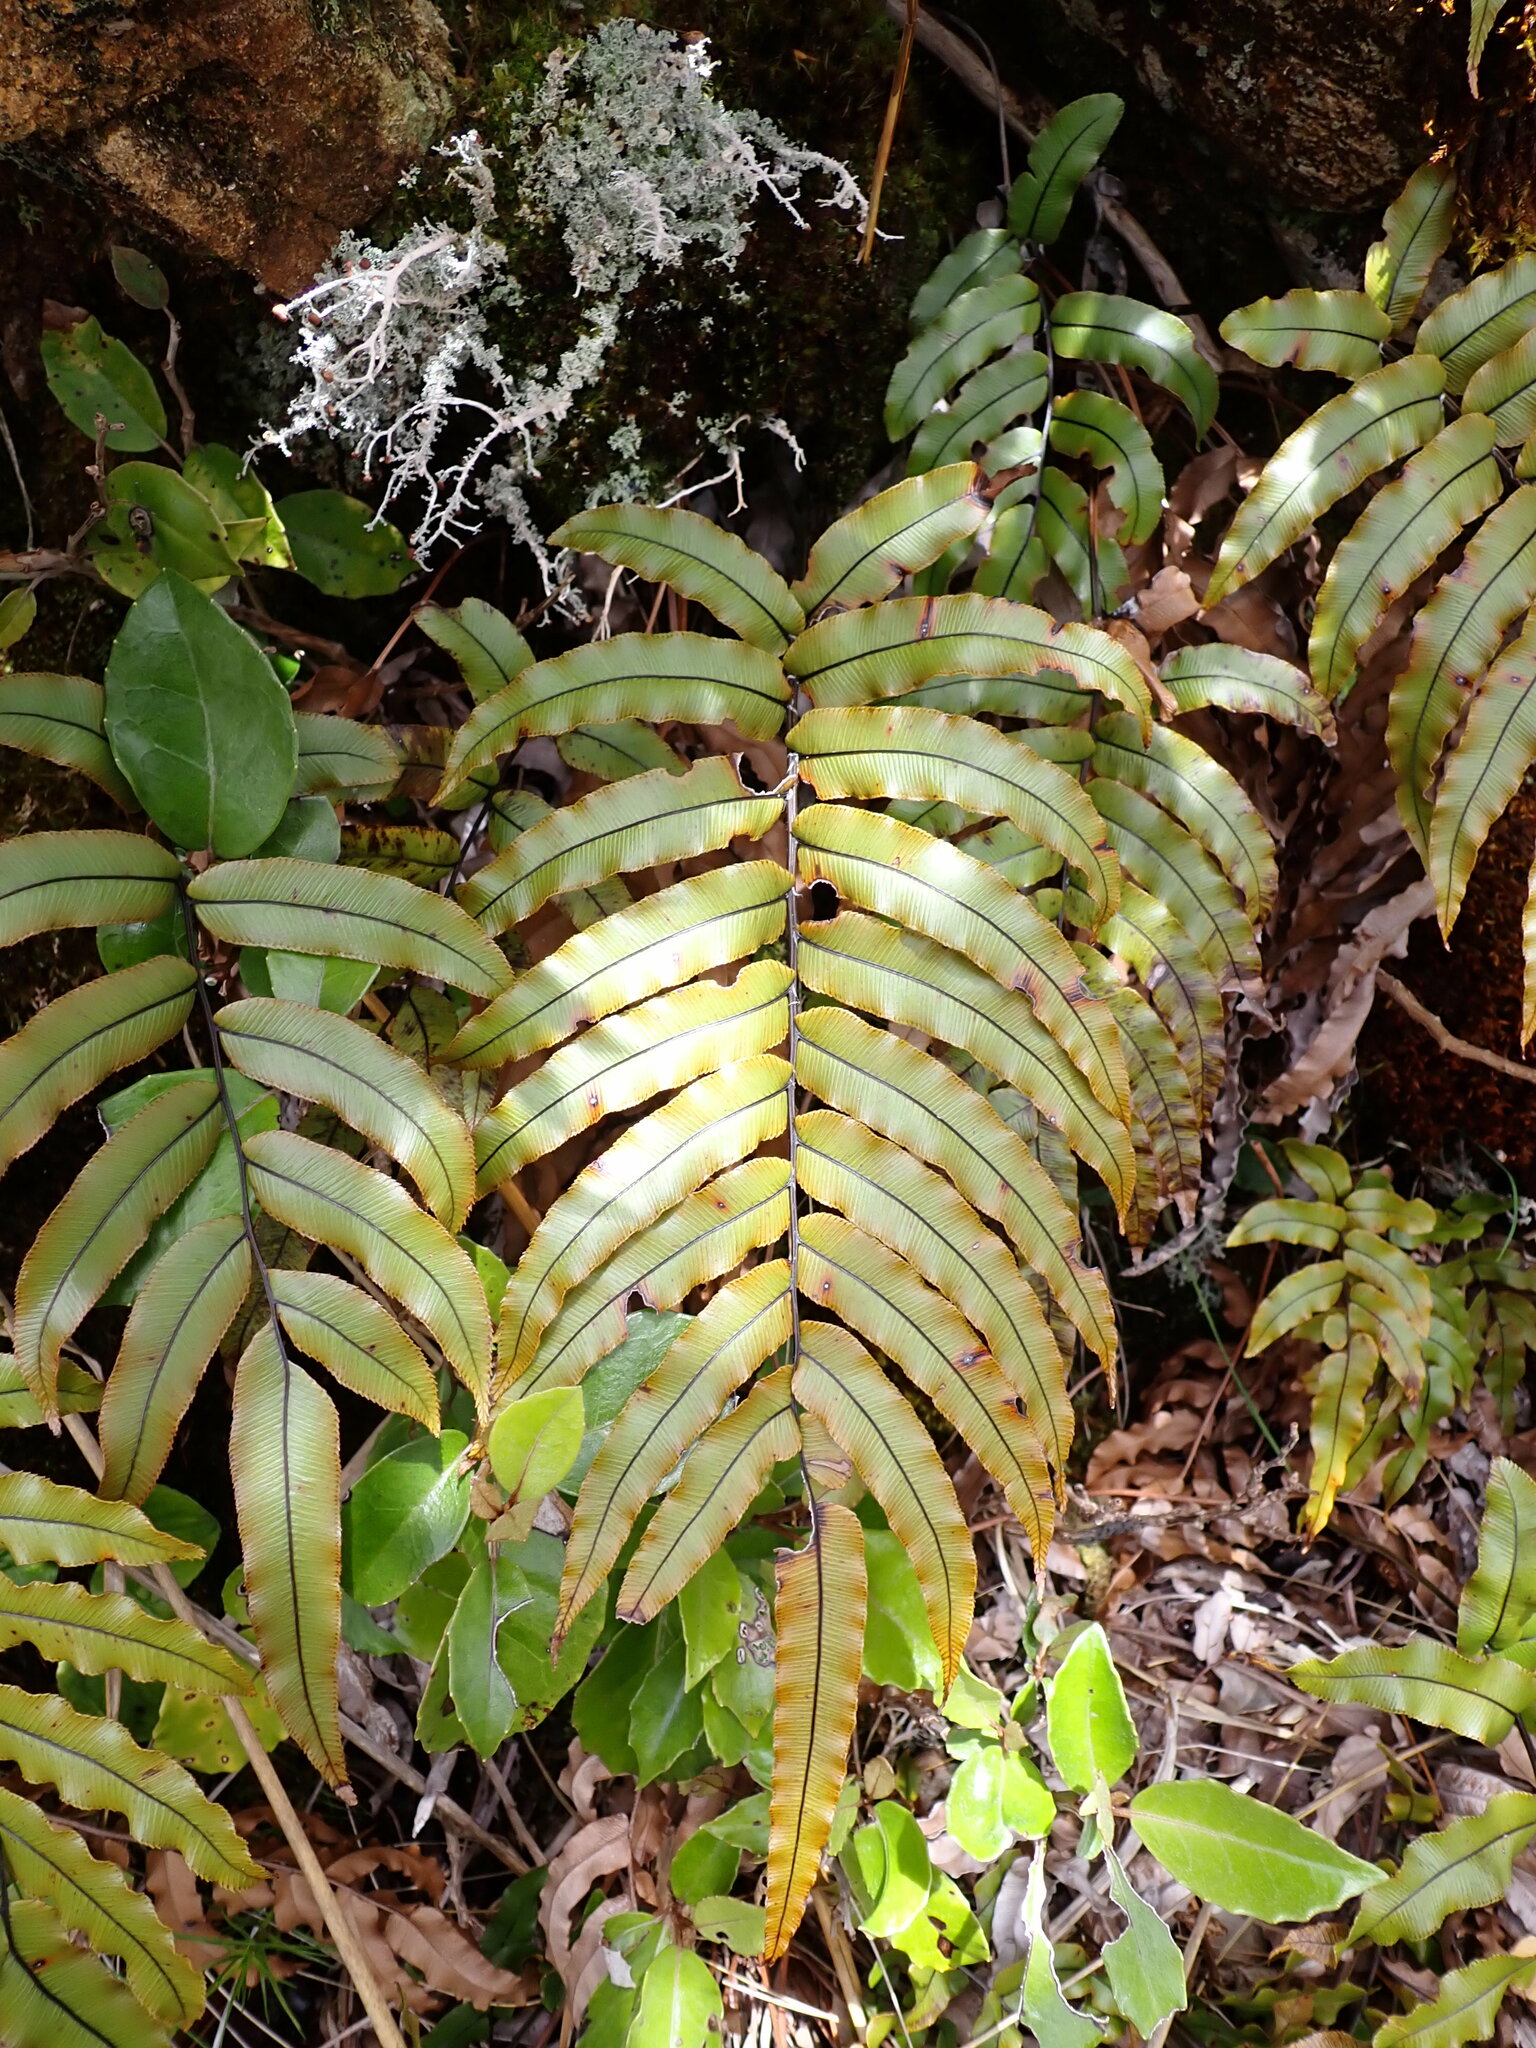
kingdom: Plantae
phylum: Tracheophyta
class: Polypodiopsida
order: Polypodiales
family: Blechnaceae
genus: Parablechnum
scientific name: Parablechnum montanum
